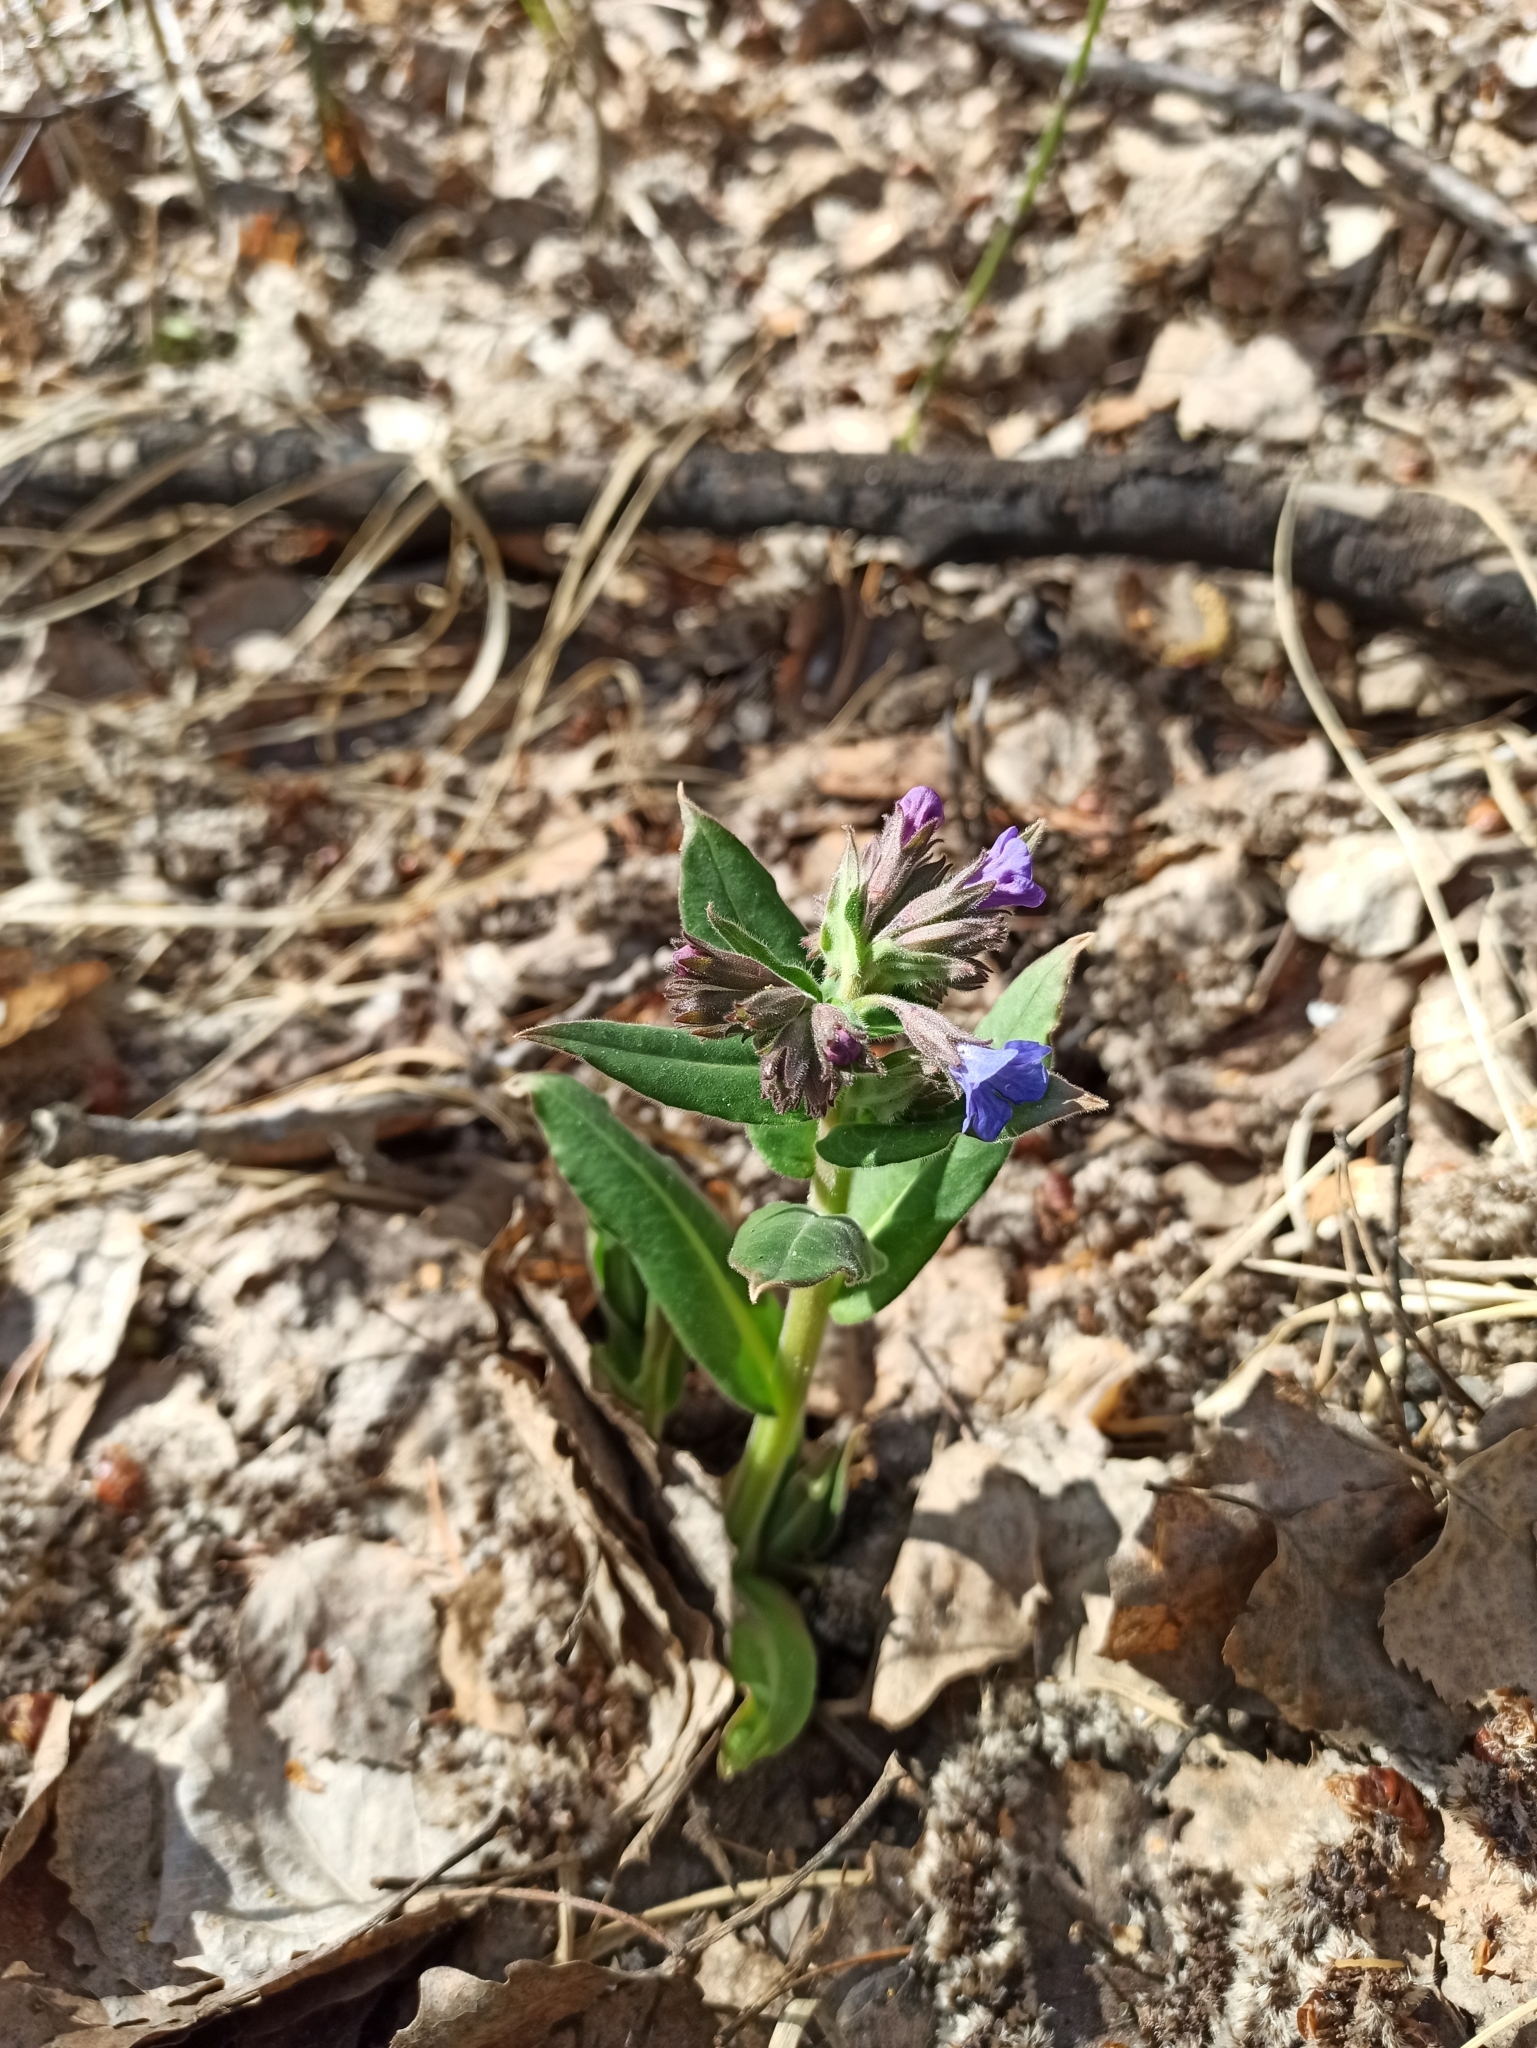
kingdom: Plantae
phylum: Tracheophyta
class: Magnoliopsida
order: Boraginales
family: Boraginaceae
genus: Pulmonaria
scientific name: Pulmonaria mollis
